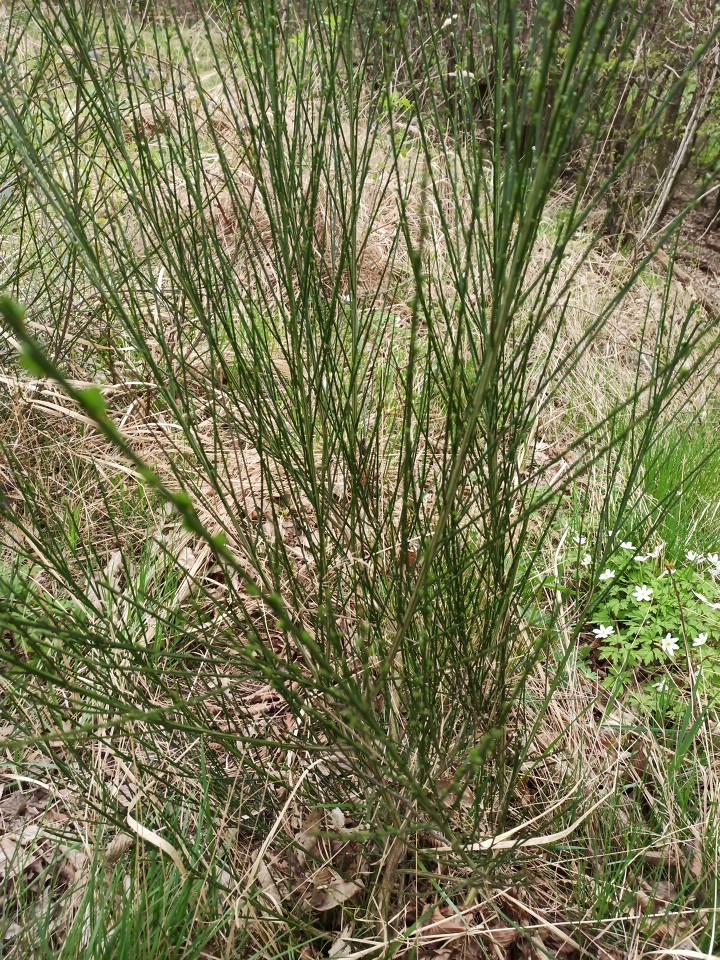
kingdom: Plantae
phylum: Tracheophyta
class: Magnoliopsida
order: Fabales
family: Fabaceae
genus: Cytisus
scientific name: Cytisus scoparius
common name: Scotch broom
